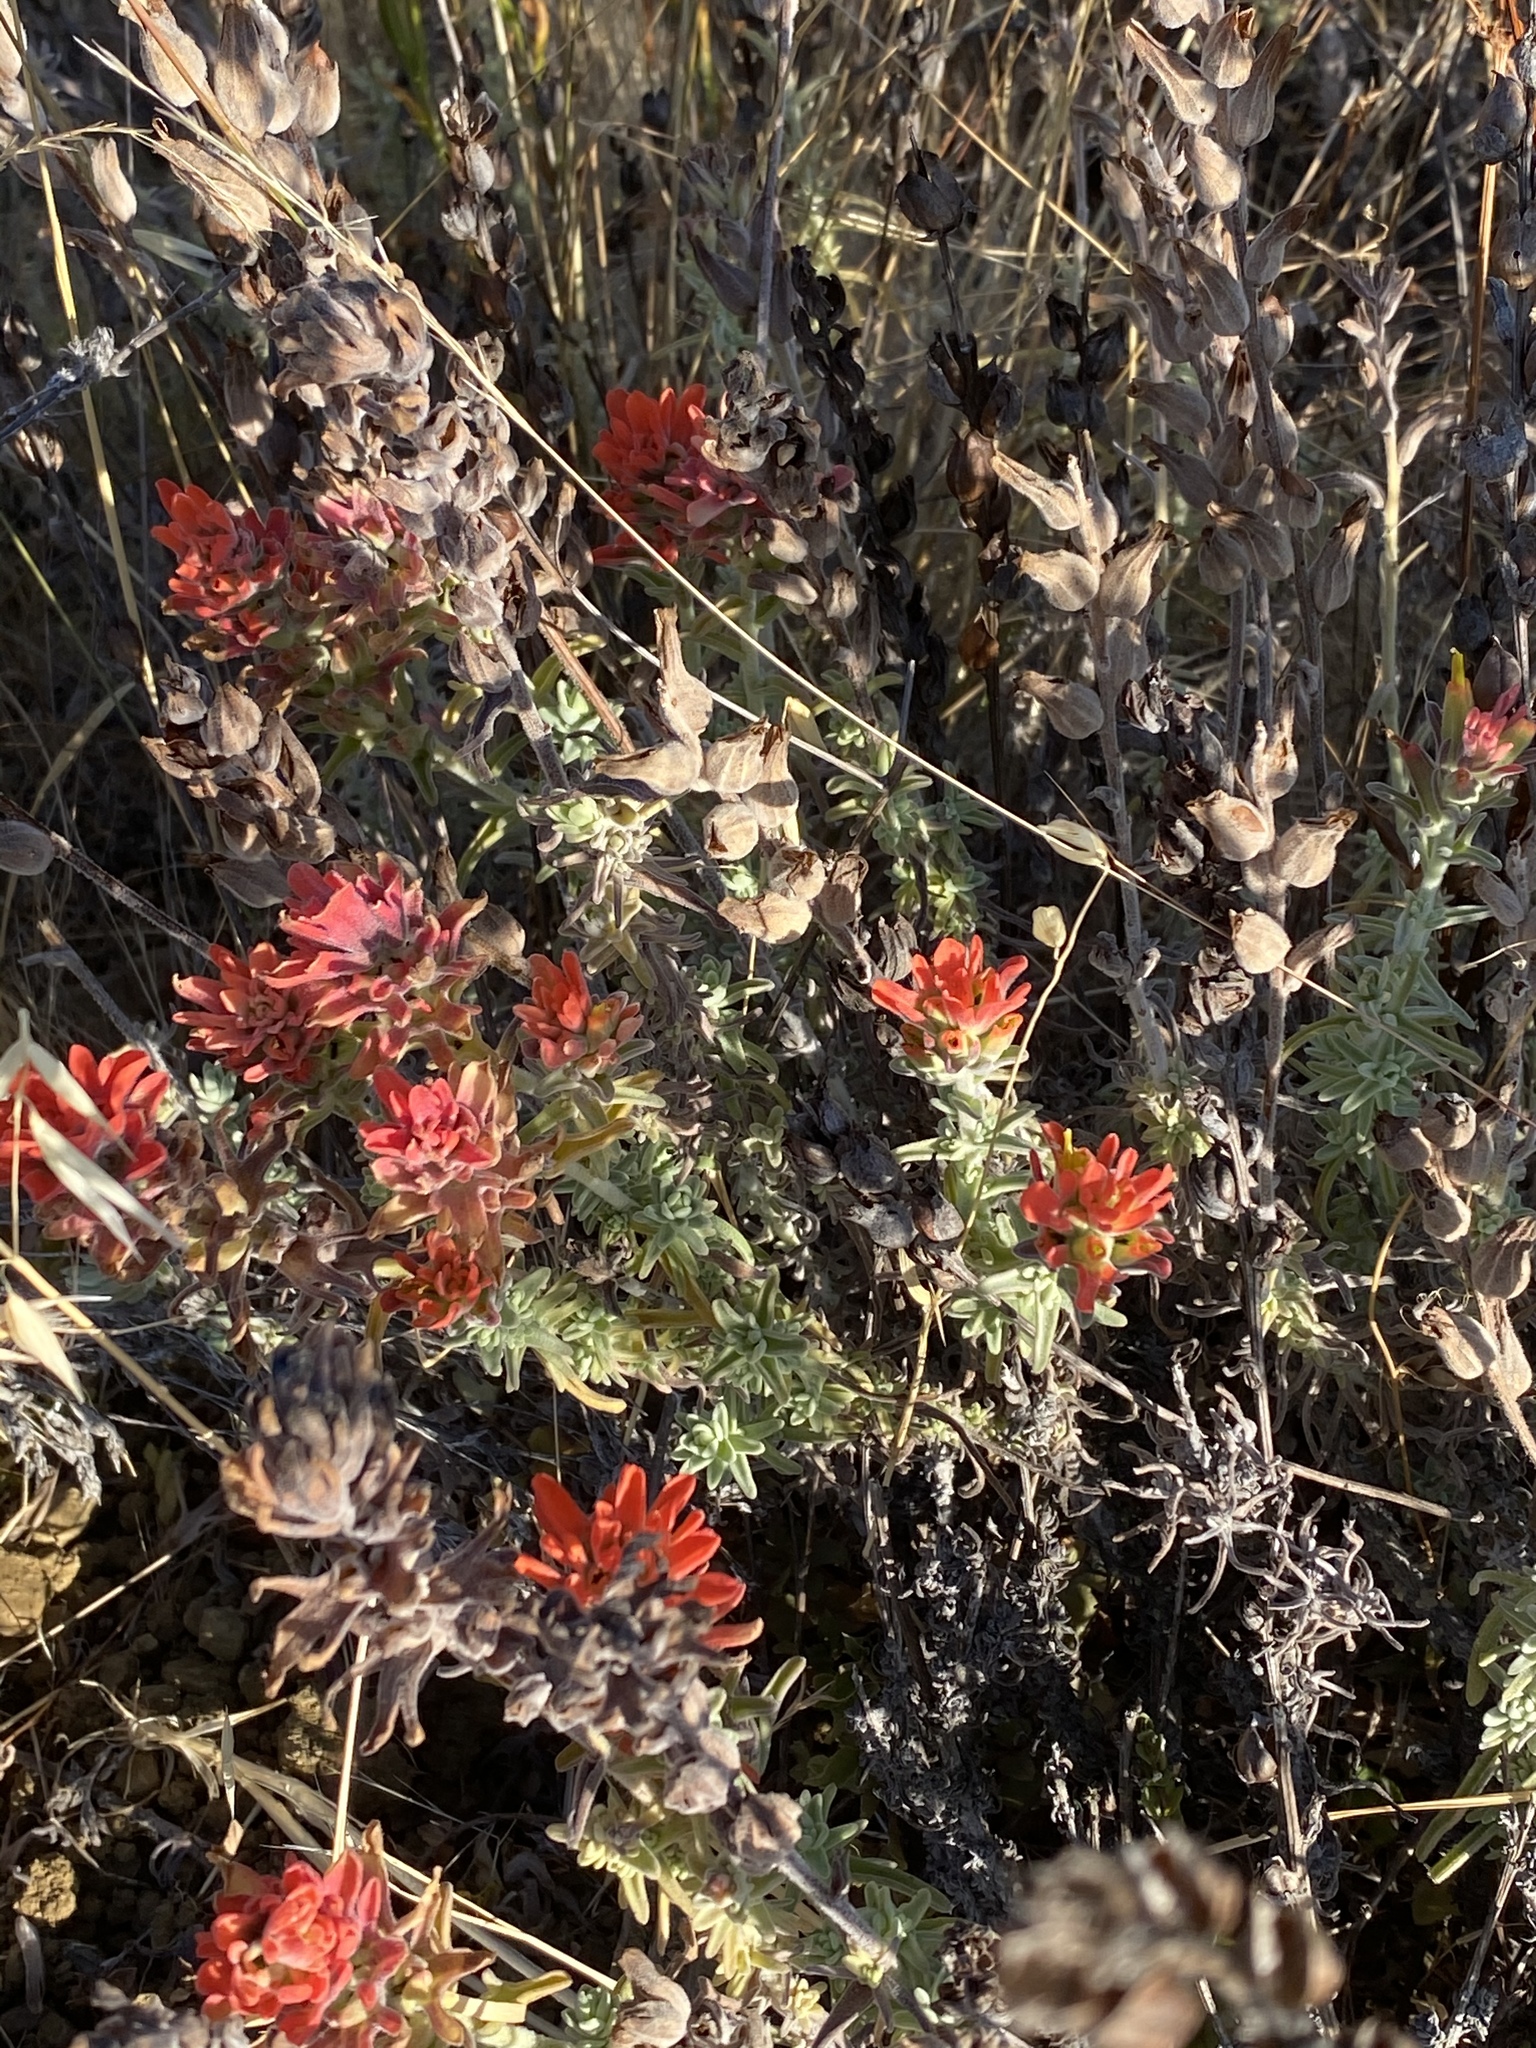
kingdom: Plantae
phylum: Tracheophyta
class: Magnoliopsida
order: Lamiales
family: Orobanchaceae
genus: Castilleja
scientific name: Castilleja foliolosa
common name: Woolly indian paintbrush
